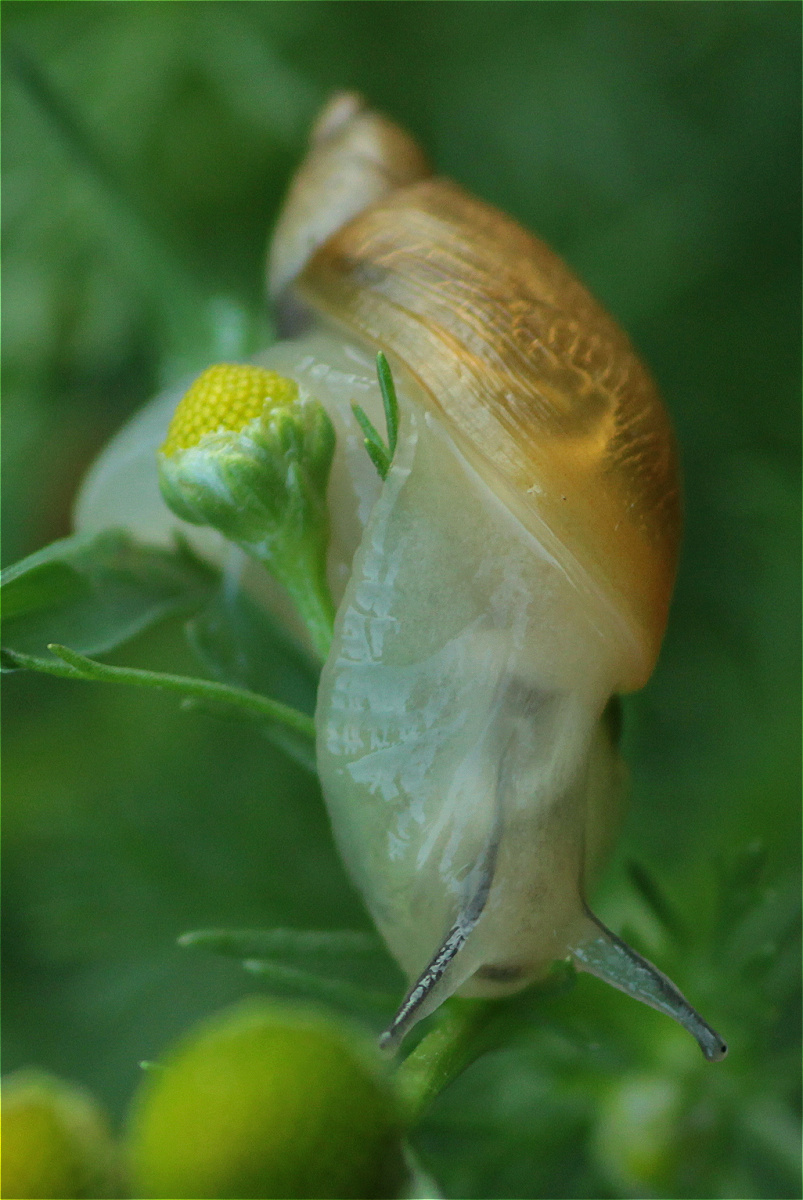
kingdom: Animalia
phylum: Mollusca
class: Gastropoda
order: Stylommatophora
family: Succineidae
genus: Succinea
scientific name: Succinea putris
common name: European ambersnail
